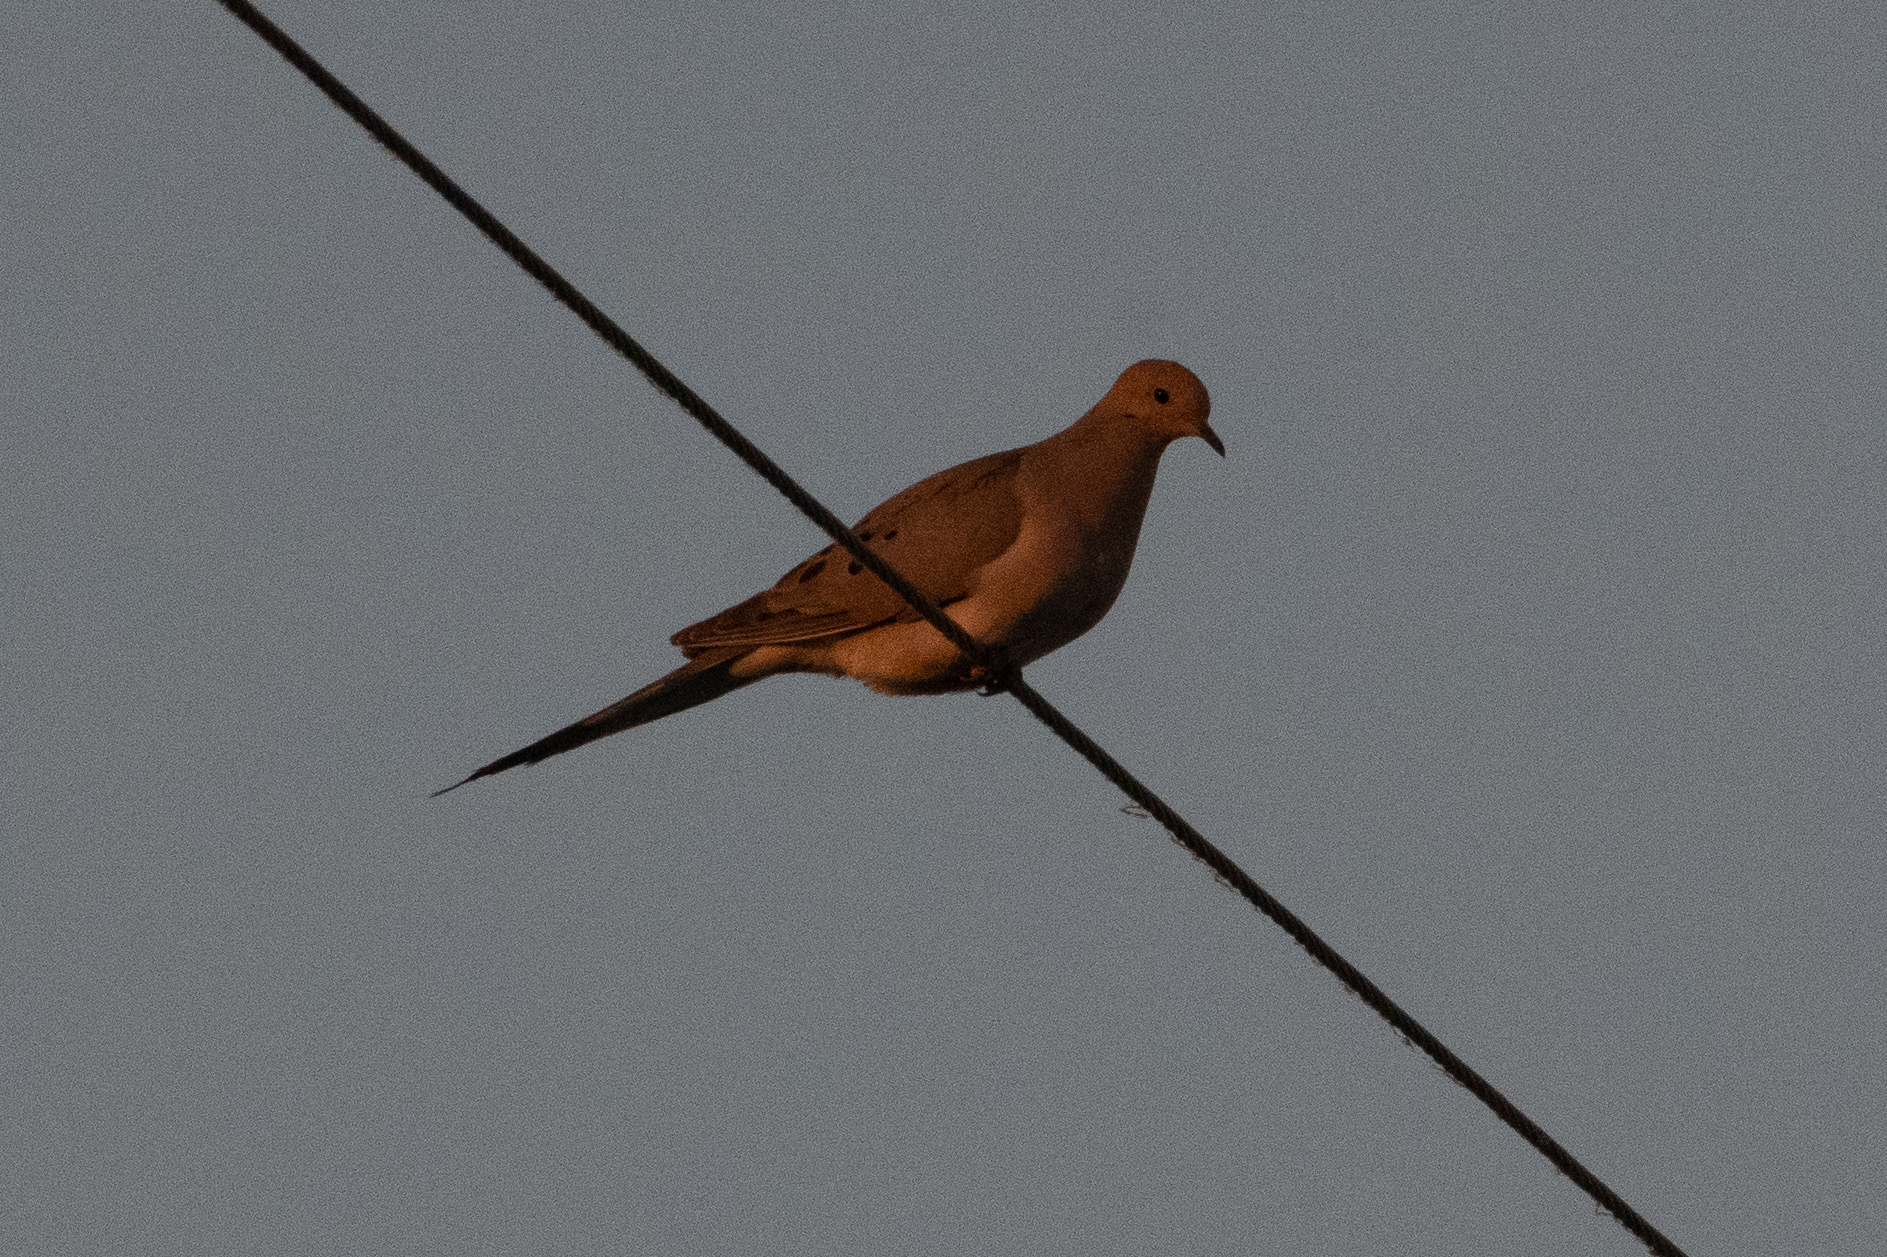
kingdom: Animalia
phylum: Chordata
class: Aves
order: Columbiformes
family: Columbidae
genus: Zenaida
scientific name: Zenaida macroura
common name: Mourning dove
